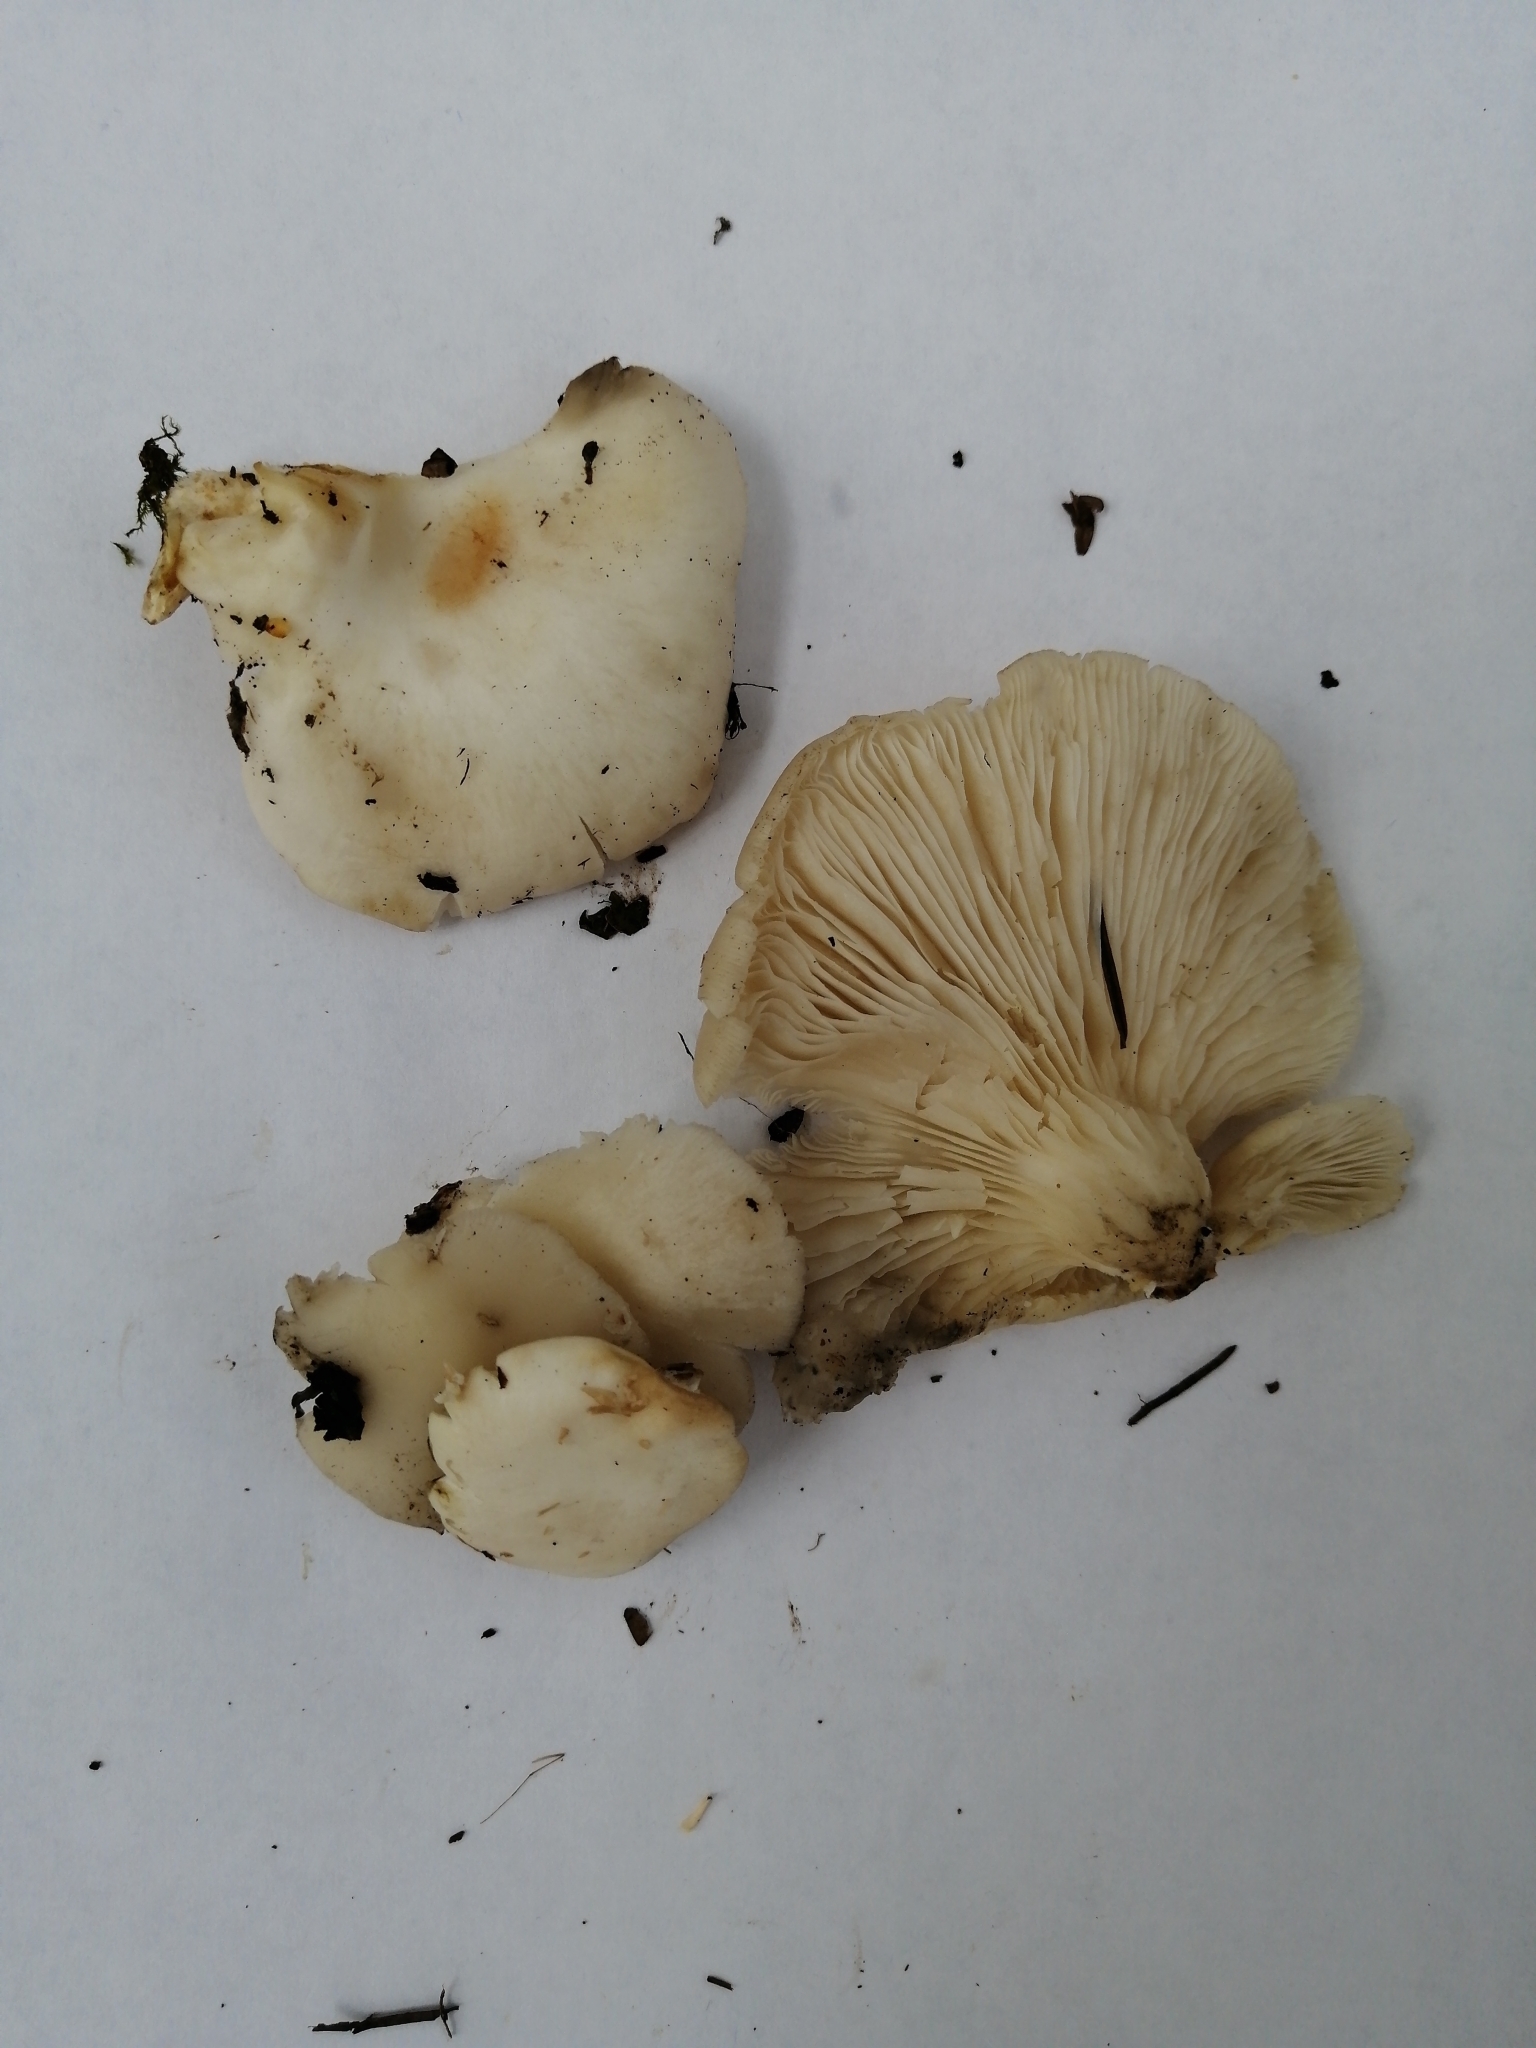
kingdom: Fungi
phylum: Basidiomycota
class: Agaricomycetes
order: Agaricales
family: Pleurotaceae
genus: Pleurotus
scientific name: Pleurotus pulmonarius
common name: Pale oyster
